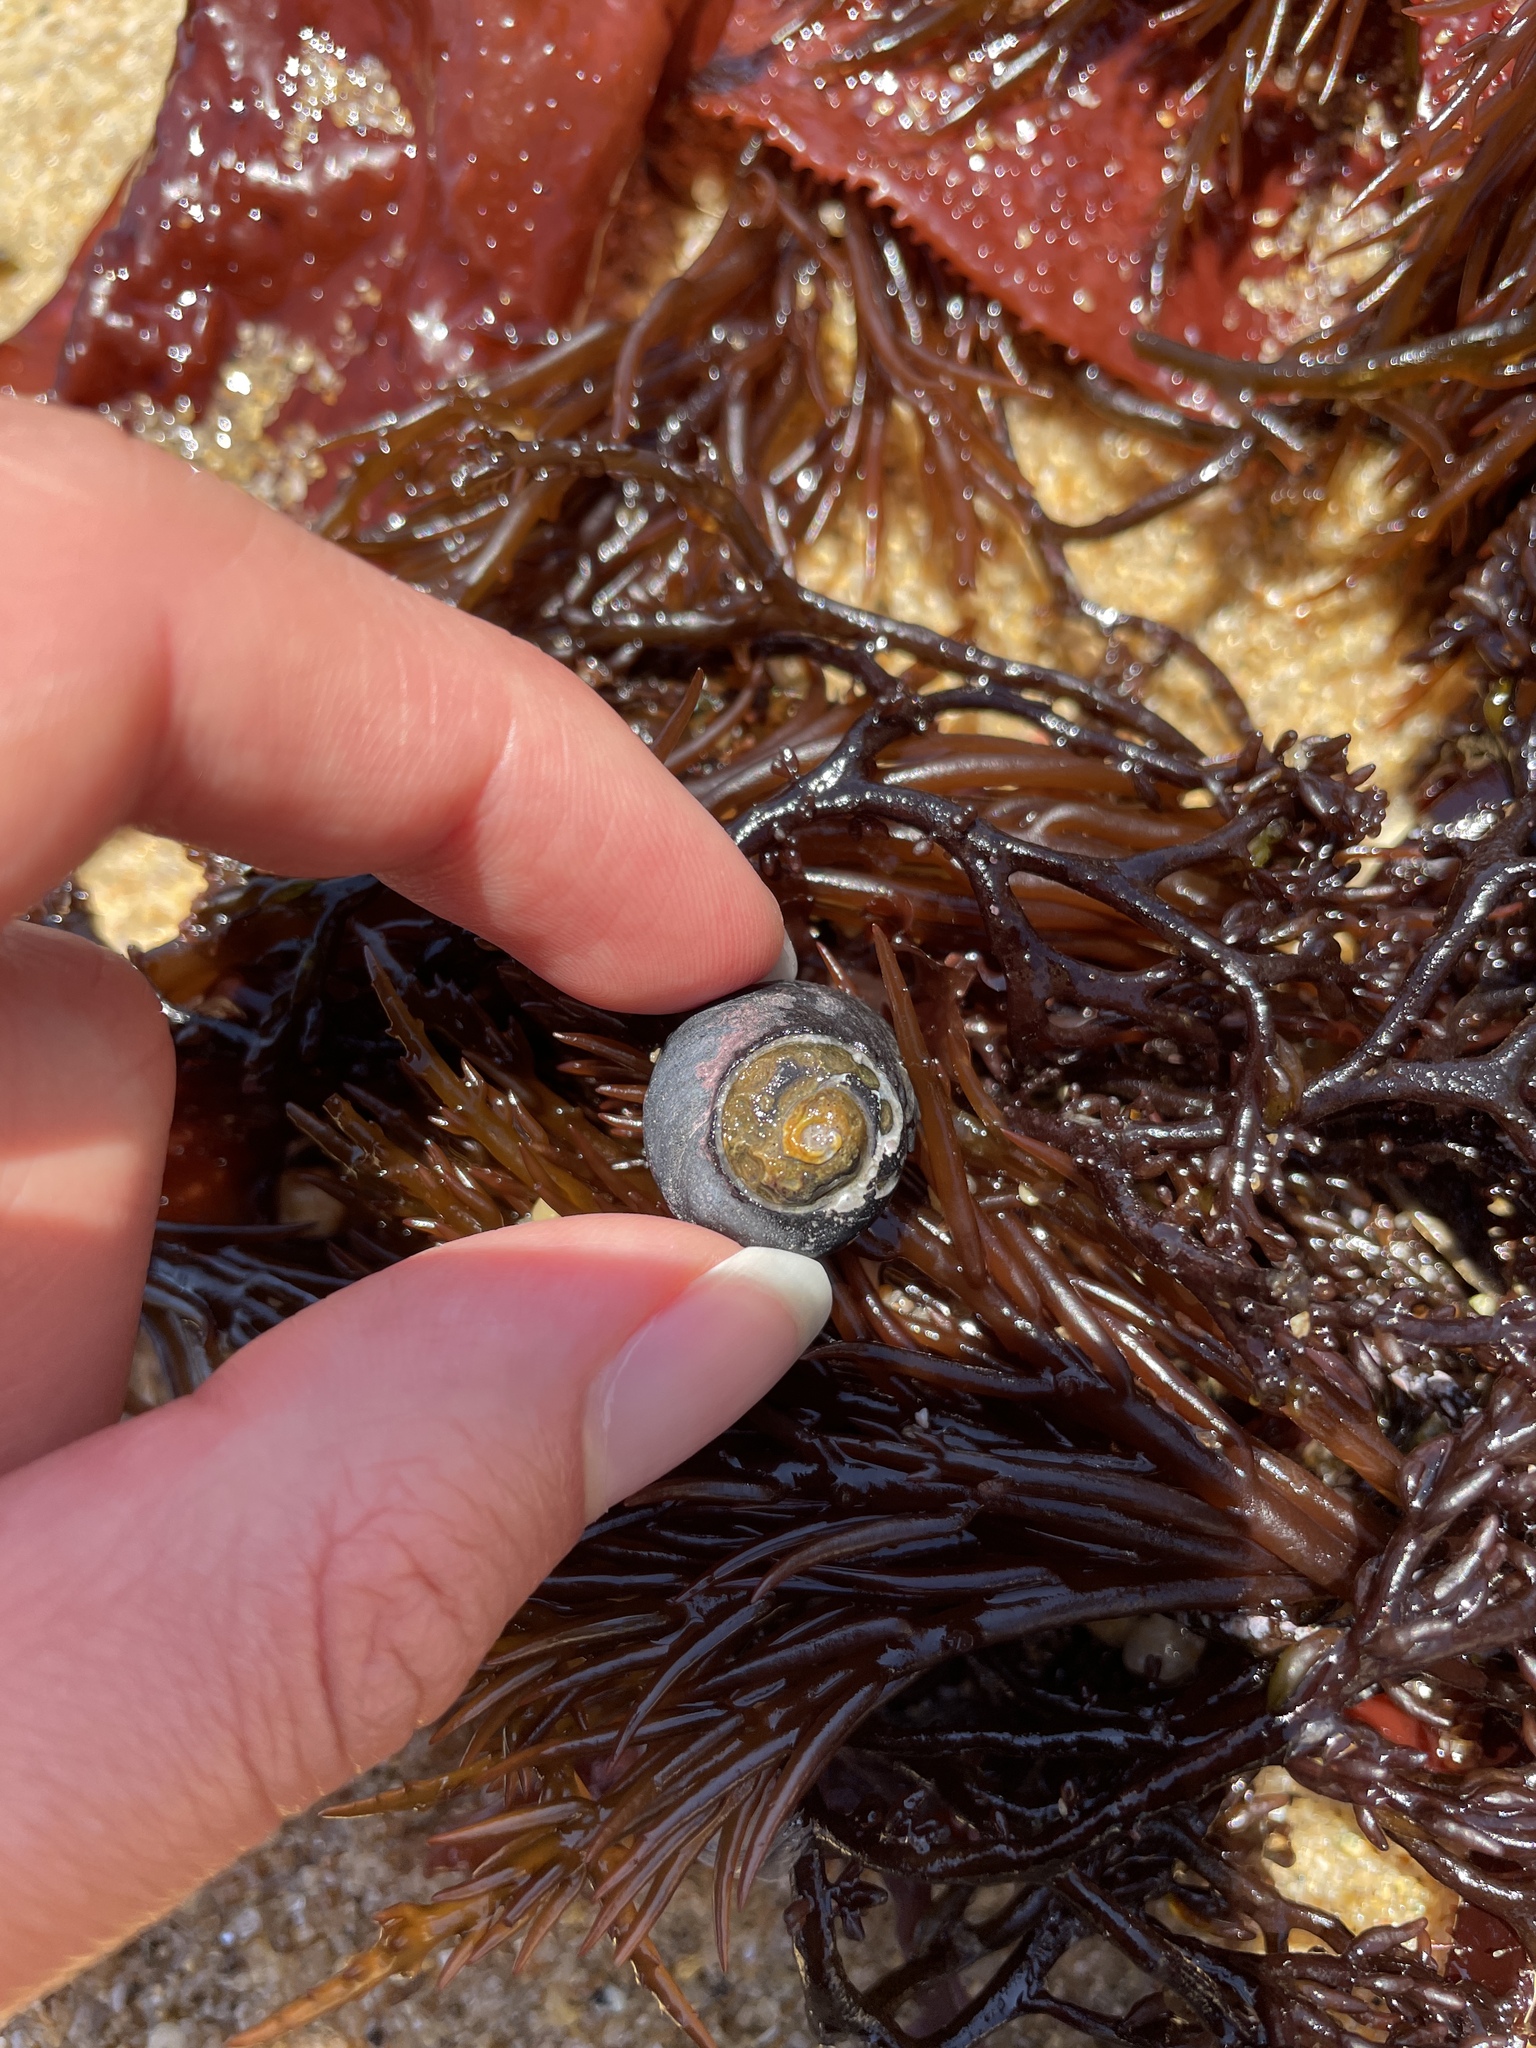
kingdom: Animalia
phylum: Mollusca
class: Gastropoda
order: Trochida
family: Tegulidae
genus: Tegula
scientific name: Tegula funebralis
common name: Black tegula
